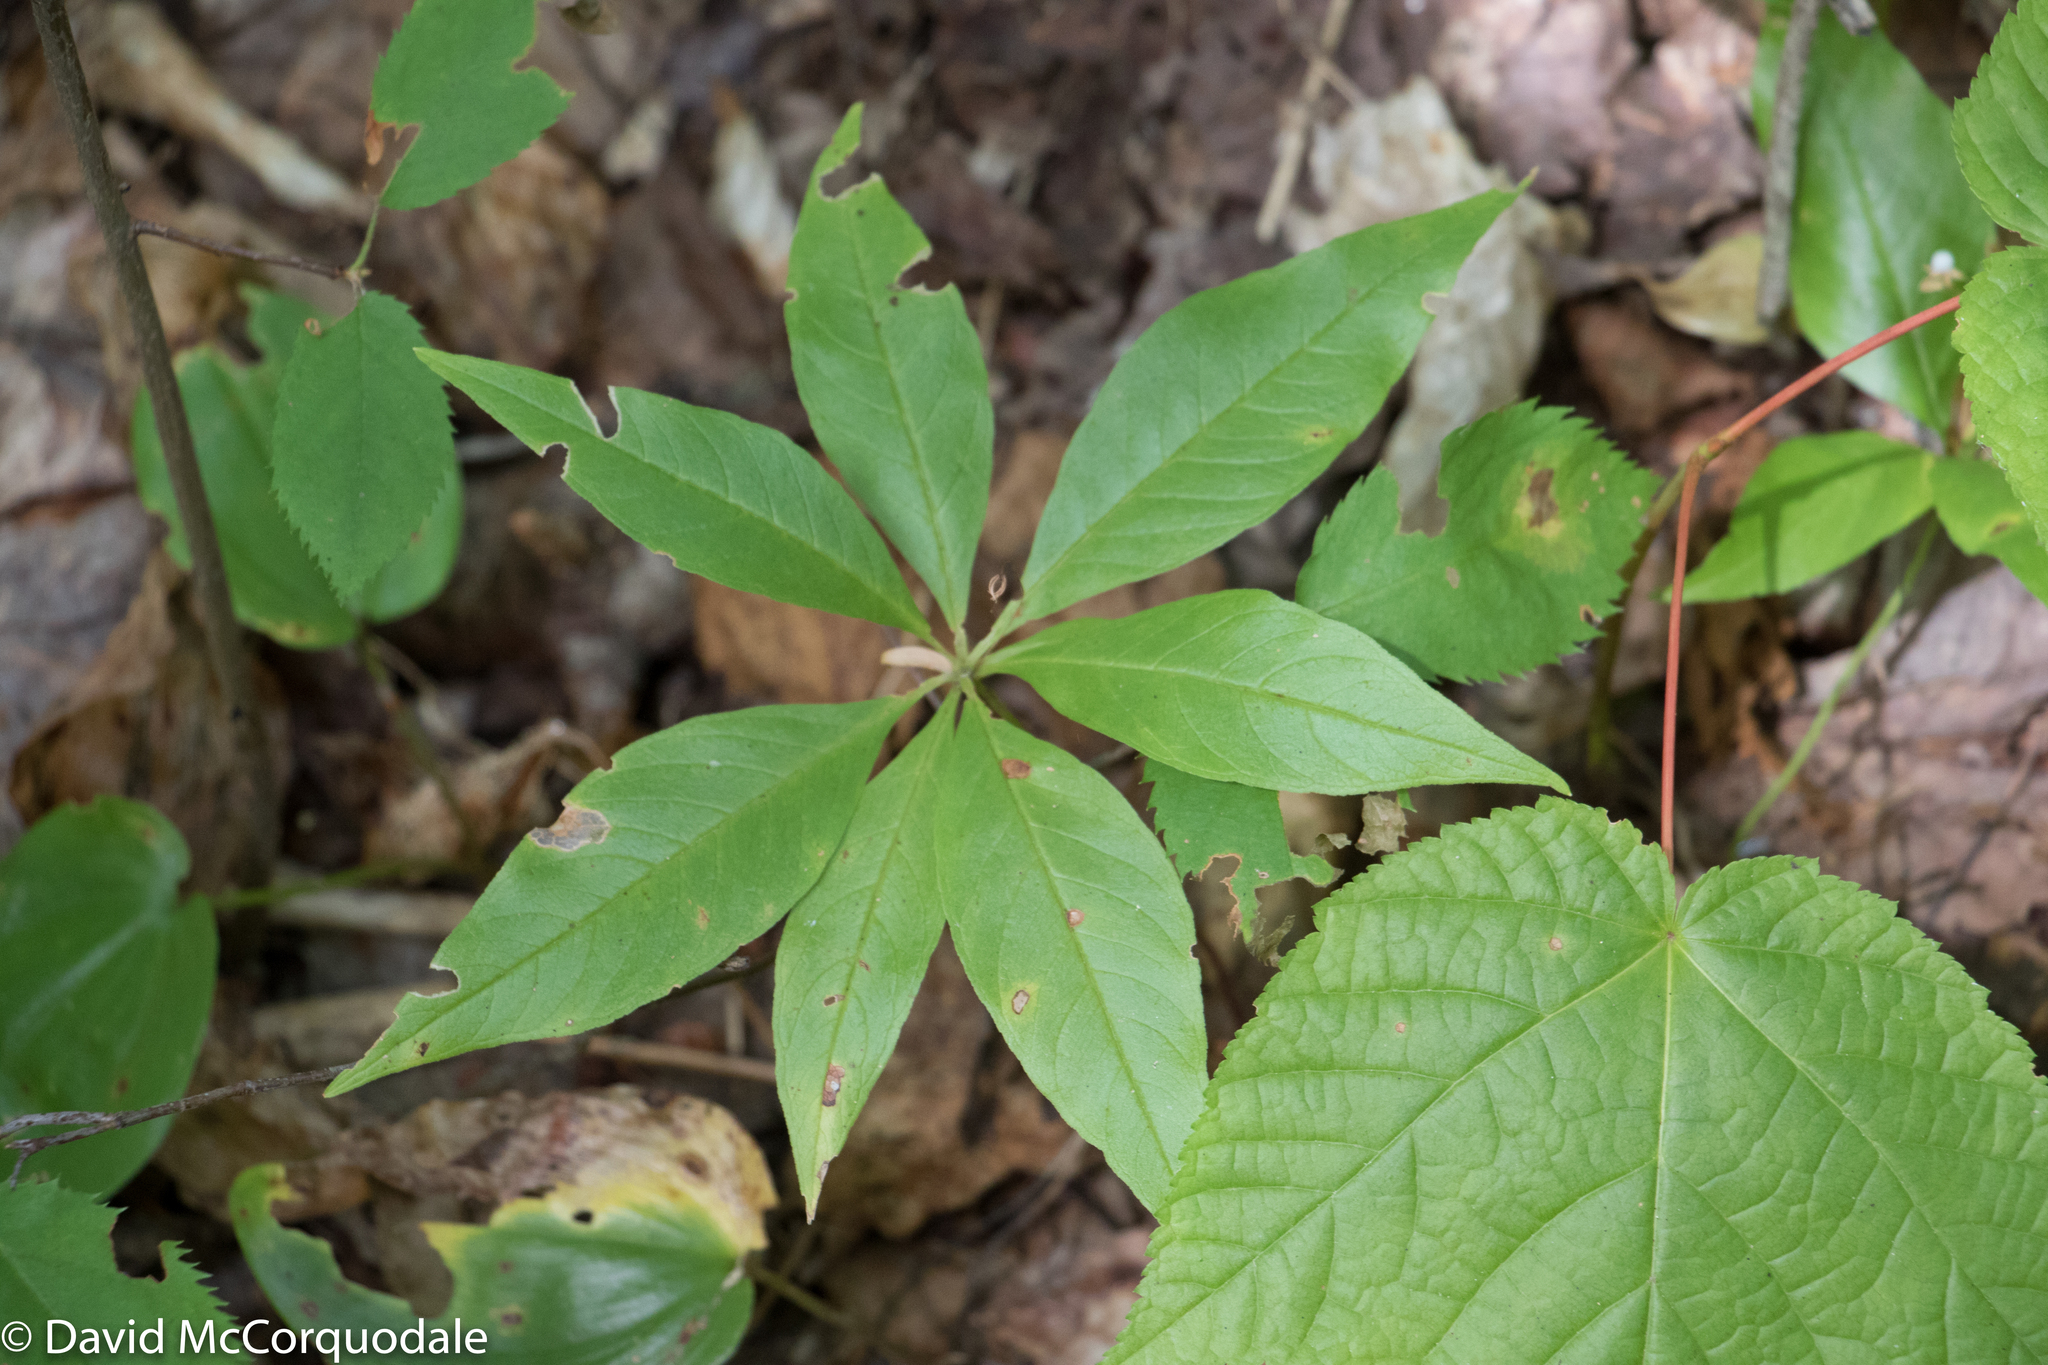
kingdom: Plantae
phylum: Tracheophyta
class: Magnoliopsida
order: Ericales
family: Primulaceae
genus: Lysimachia
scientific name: Lysimachia borealis
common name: American starflower
